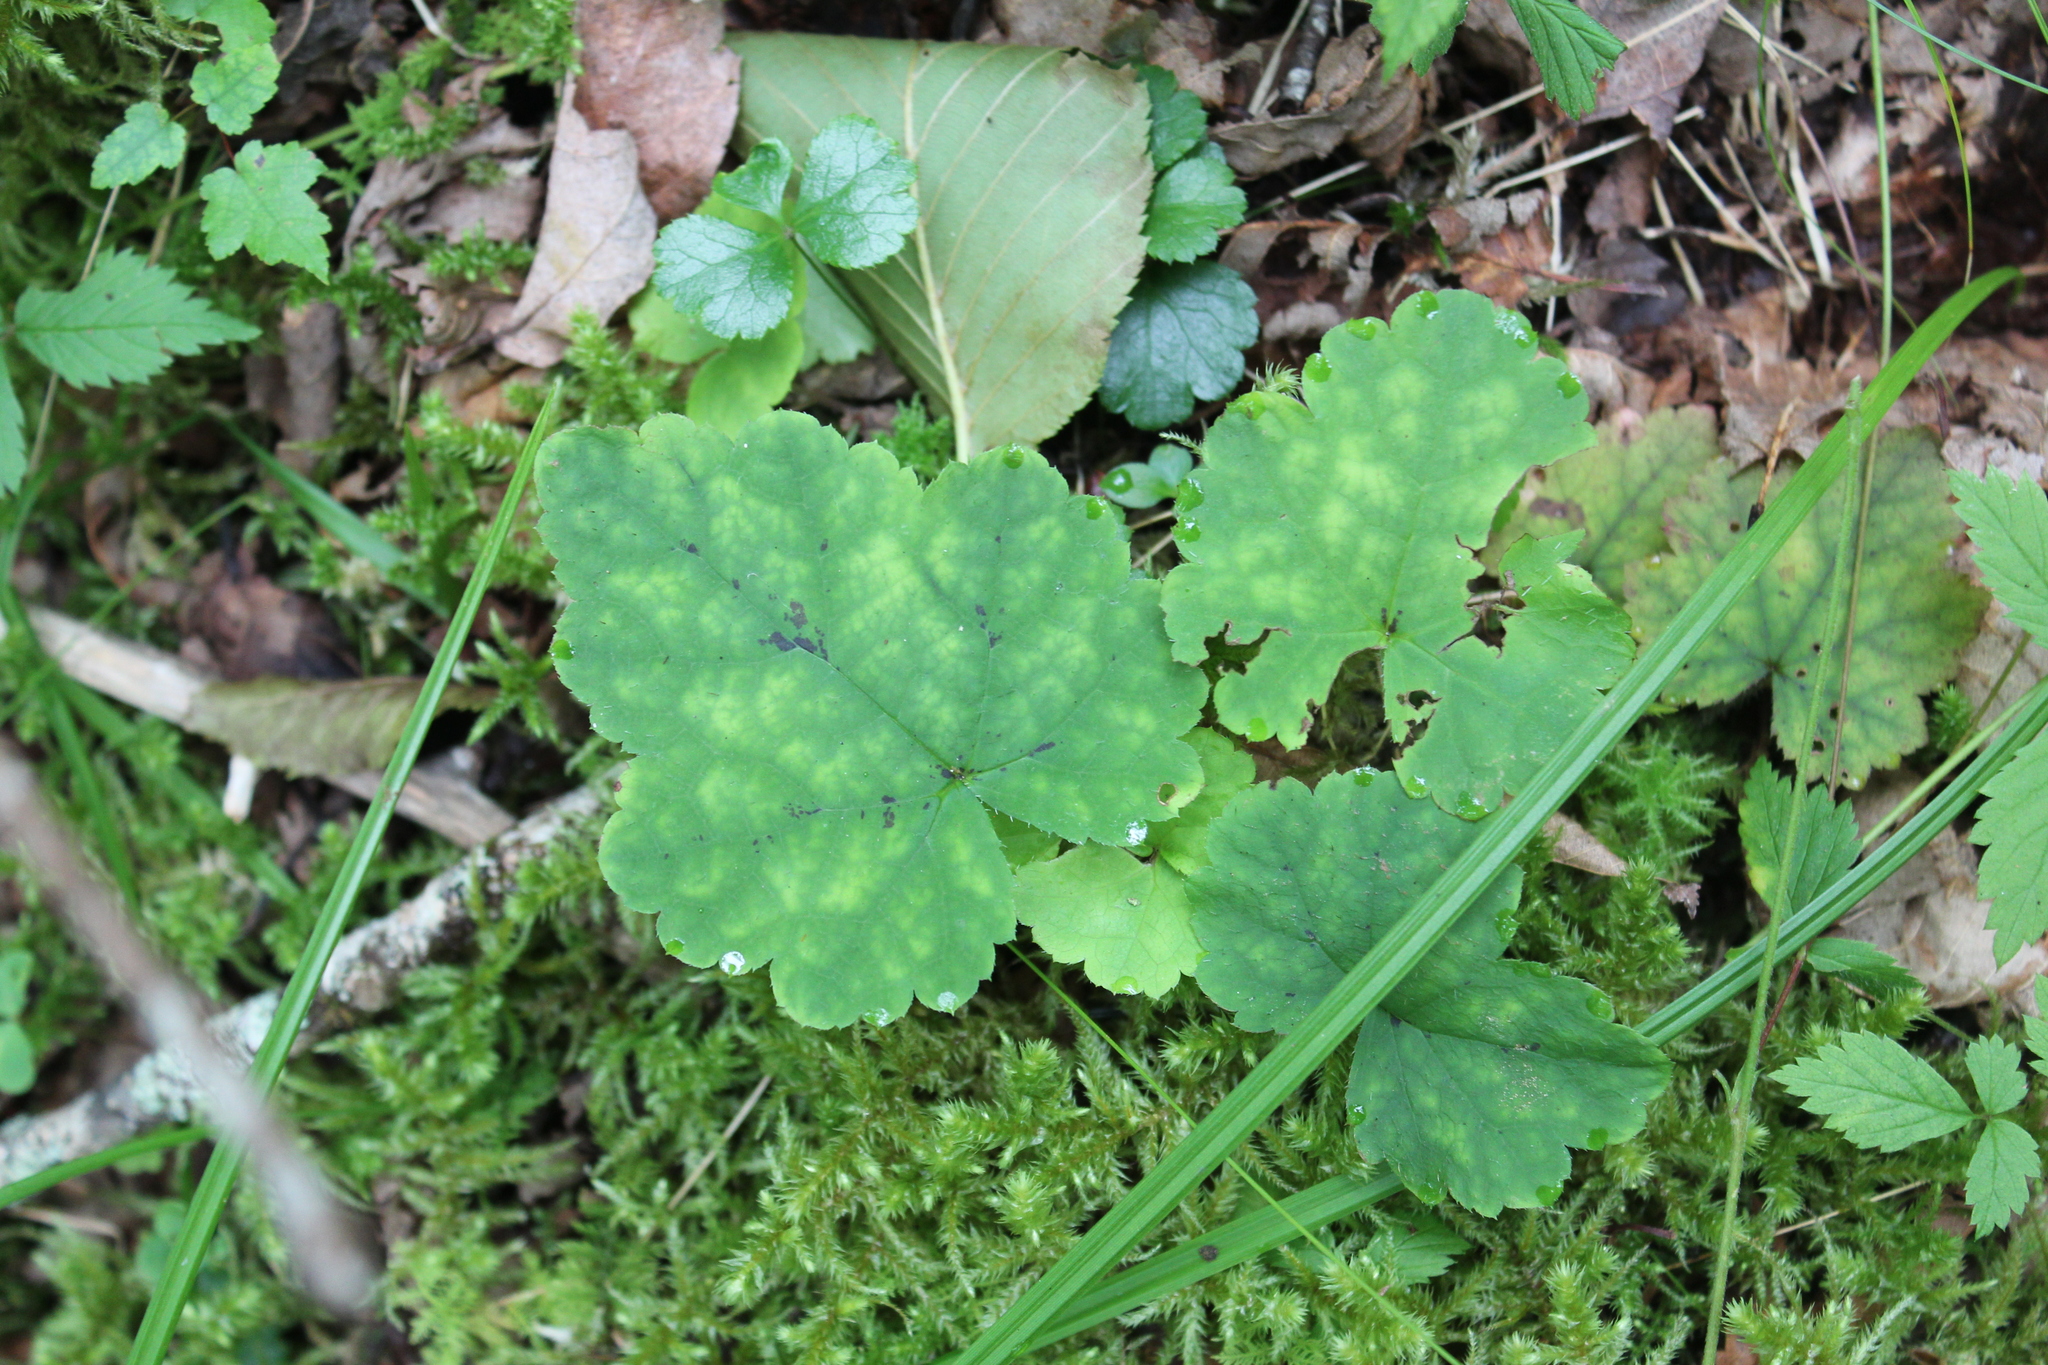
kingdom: Plantae
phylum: Tracheophyta
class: Magnoliopsida
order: Saxifragales
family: Saxifragaceae
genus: Tiarella
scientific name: Tiarella stolonifera
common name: Stoloniferous foamflower
